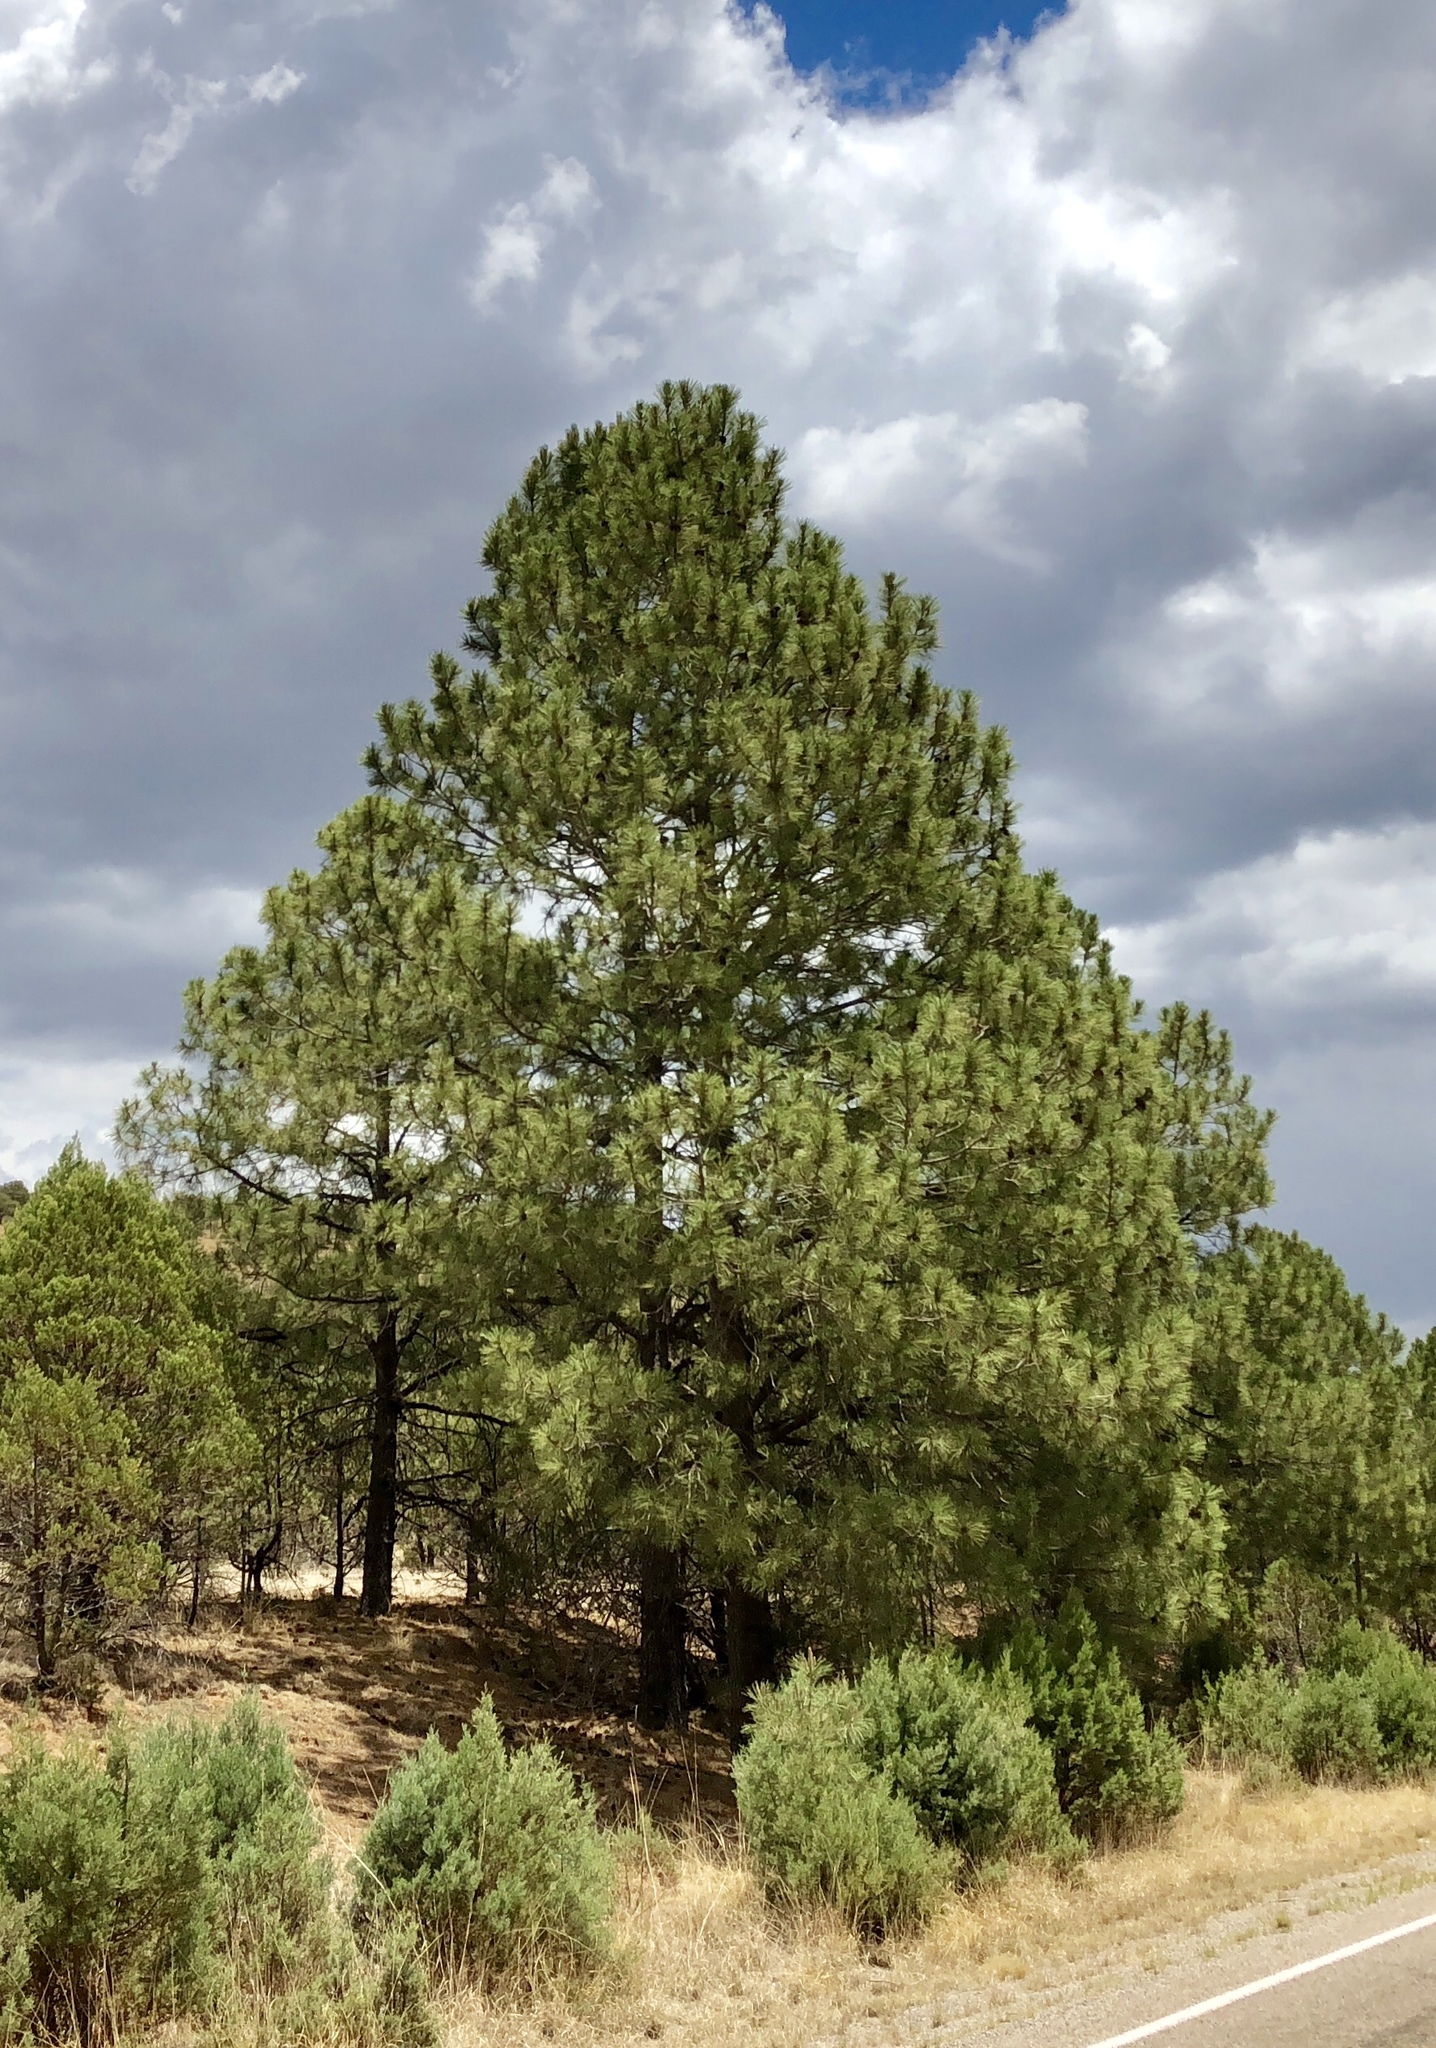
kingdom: Plantae
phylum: Tracheophyta
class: Pinopsida
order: Pinales
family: Pinaceae
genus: Pinus
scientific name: Pinus ponderosa
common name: Western yellow-pine
